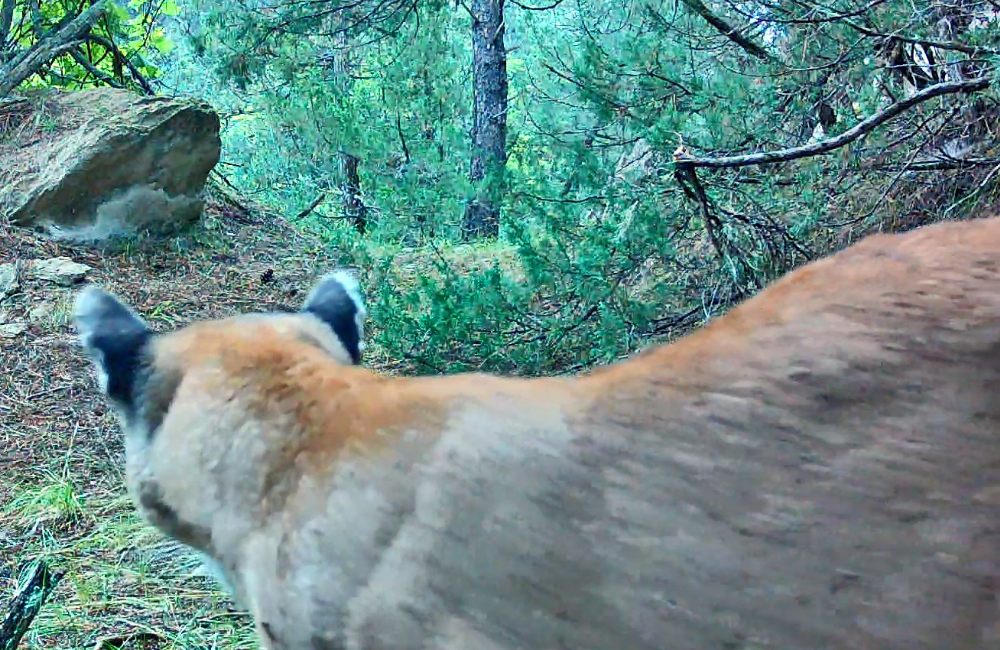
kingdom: Animalia
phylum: Chordata
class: Mammalia
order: Carnivora
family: Felidae
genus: Puma
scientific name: Puma concolor
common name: Puma
